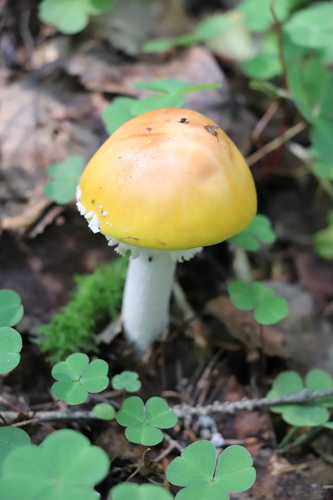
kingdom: Fungi
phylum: Basidiomycota
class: Agaricomycetes
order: Agaricales
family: Amanitaceae
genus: Amanita
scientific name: Amanita muscaria
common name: Fly agaric
